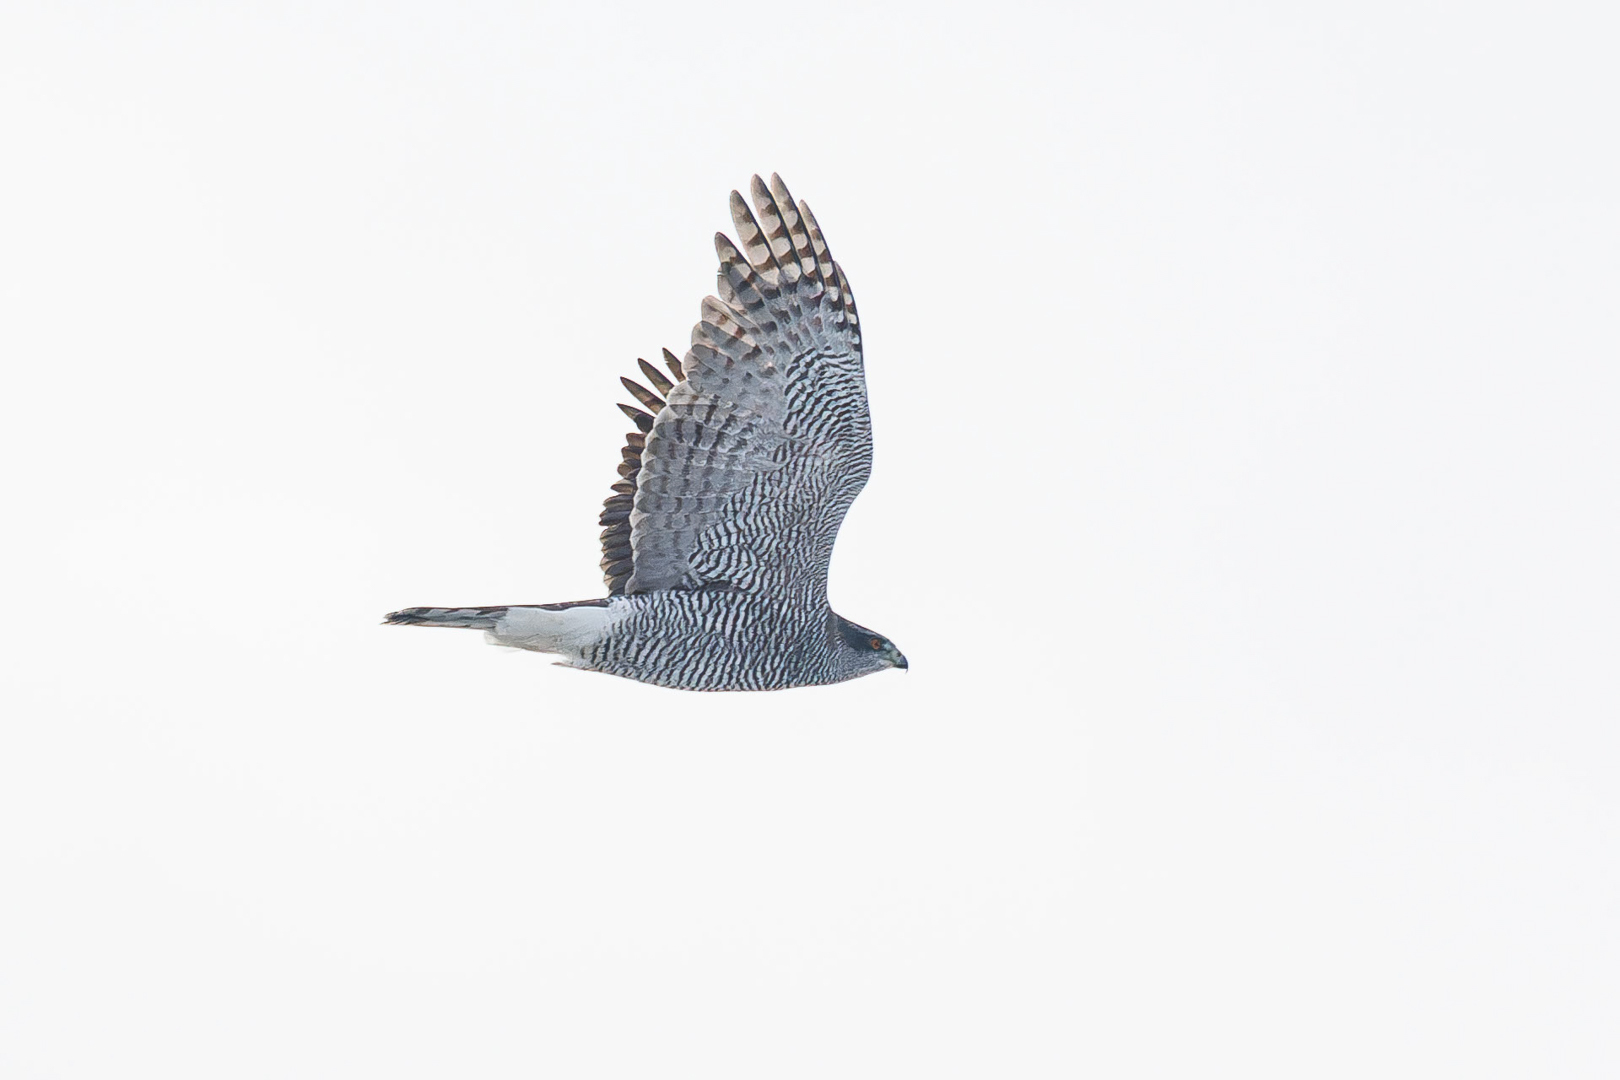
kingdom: Animalia
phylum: Chordata
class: Aves
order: Accipitriformes
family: Accipitridae
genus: Accipiter
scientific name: Accipiter gentilis
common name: Northern goshawk
